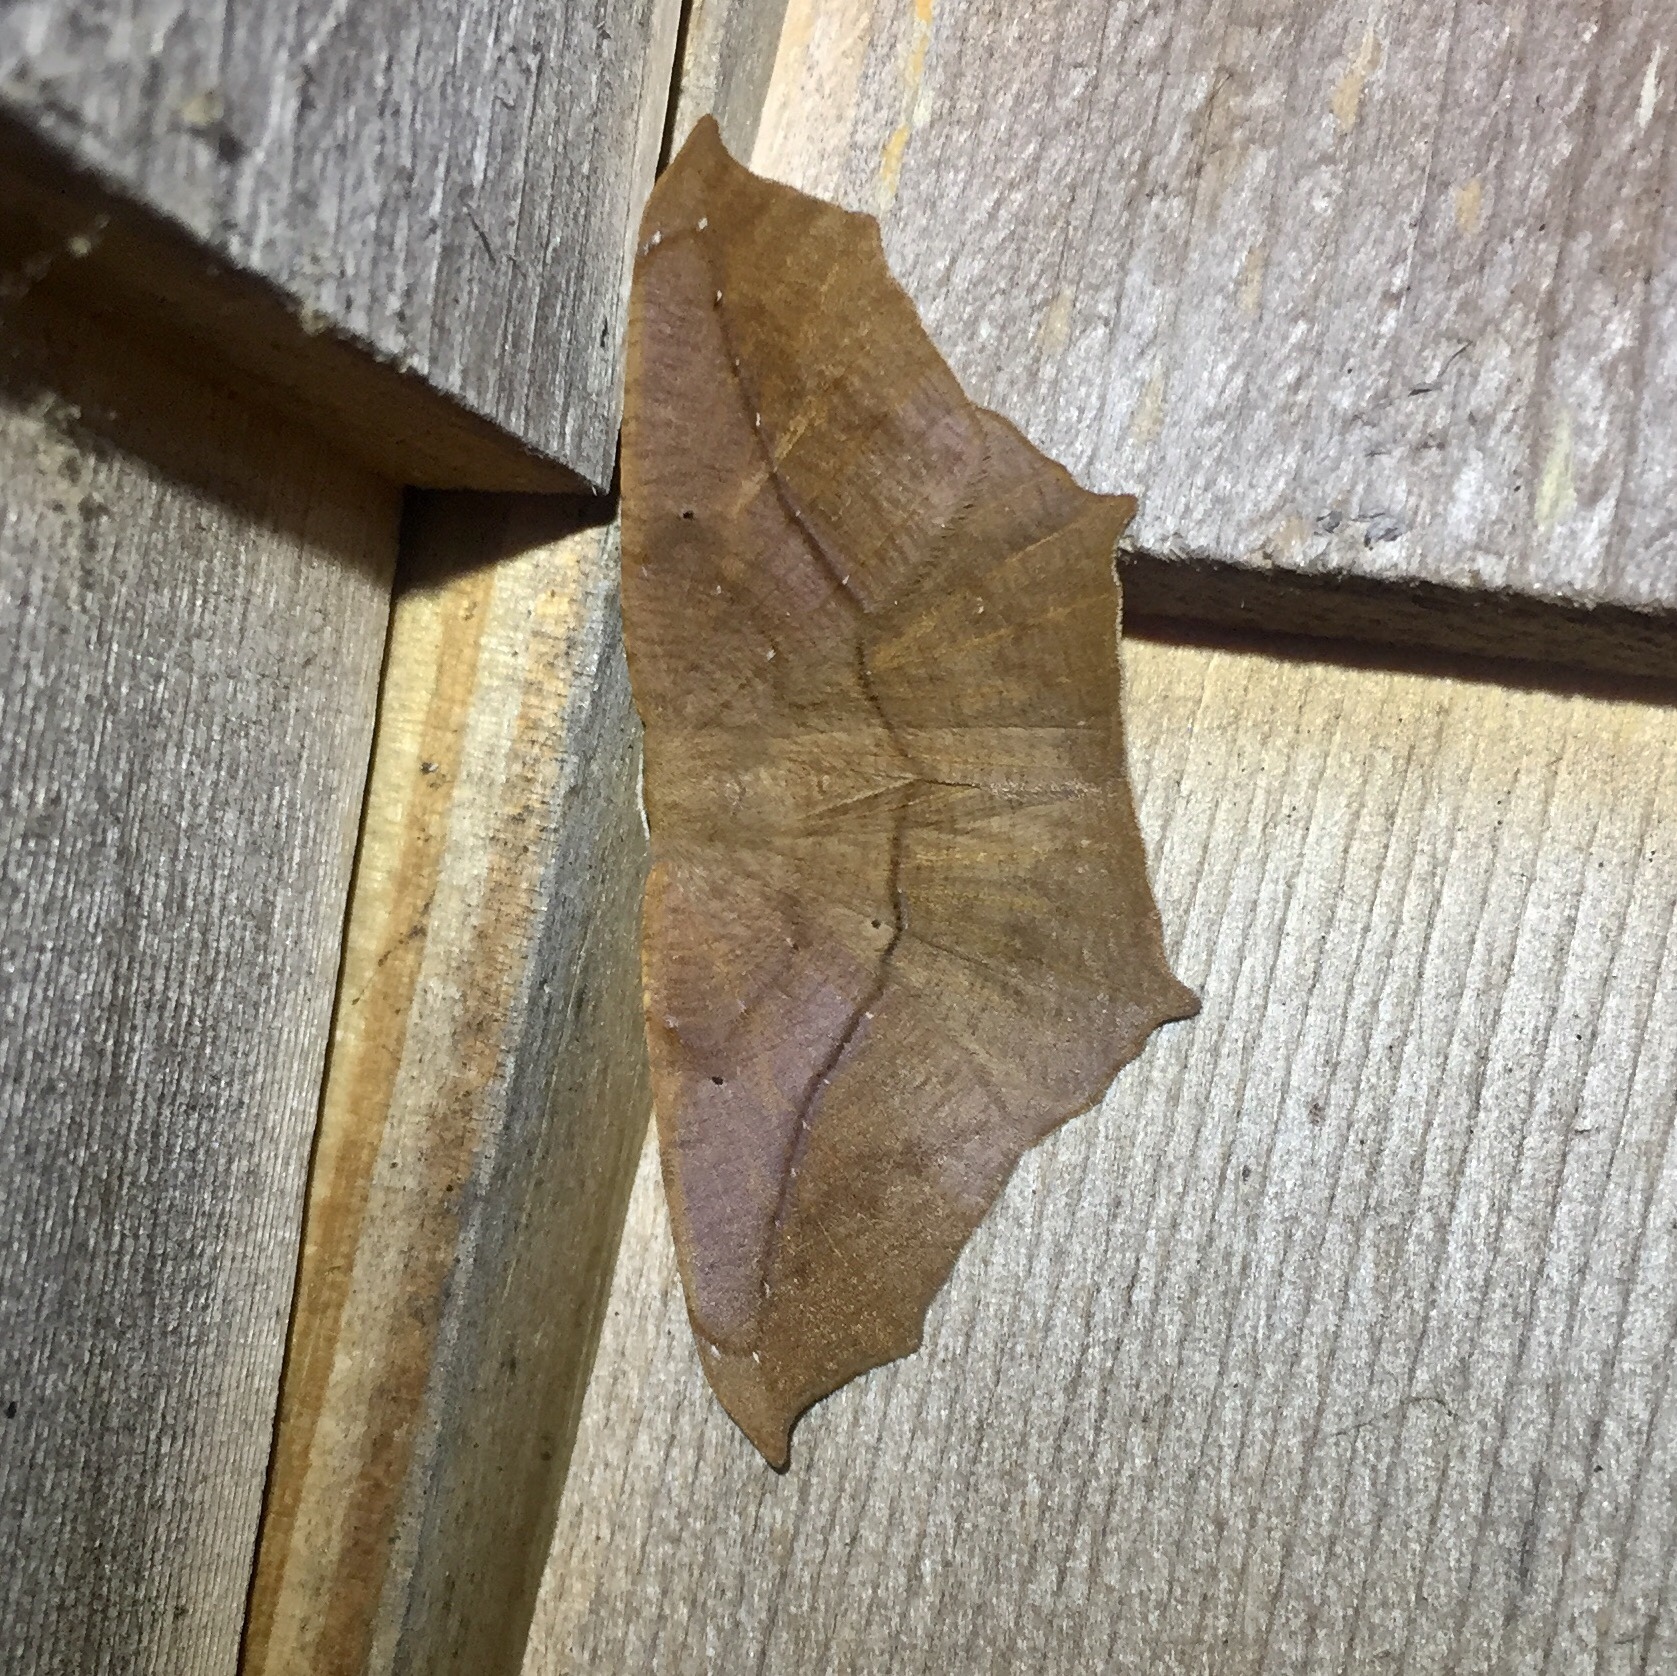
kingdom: Animalia
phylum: Arthropoda
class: Insecta
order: Lepidoptera
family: Geometridae
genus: Prochoerodes
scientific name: Prochoerodes lineola
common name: Large maple spanworm
